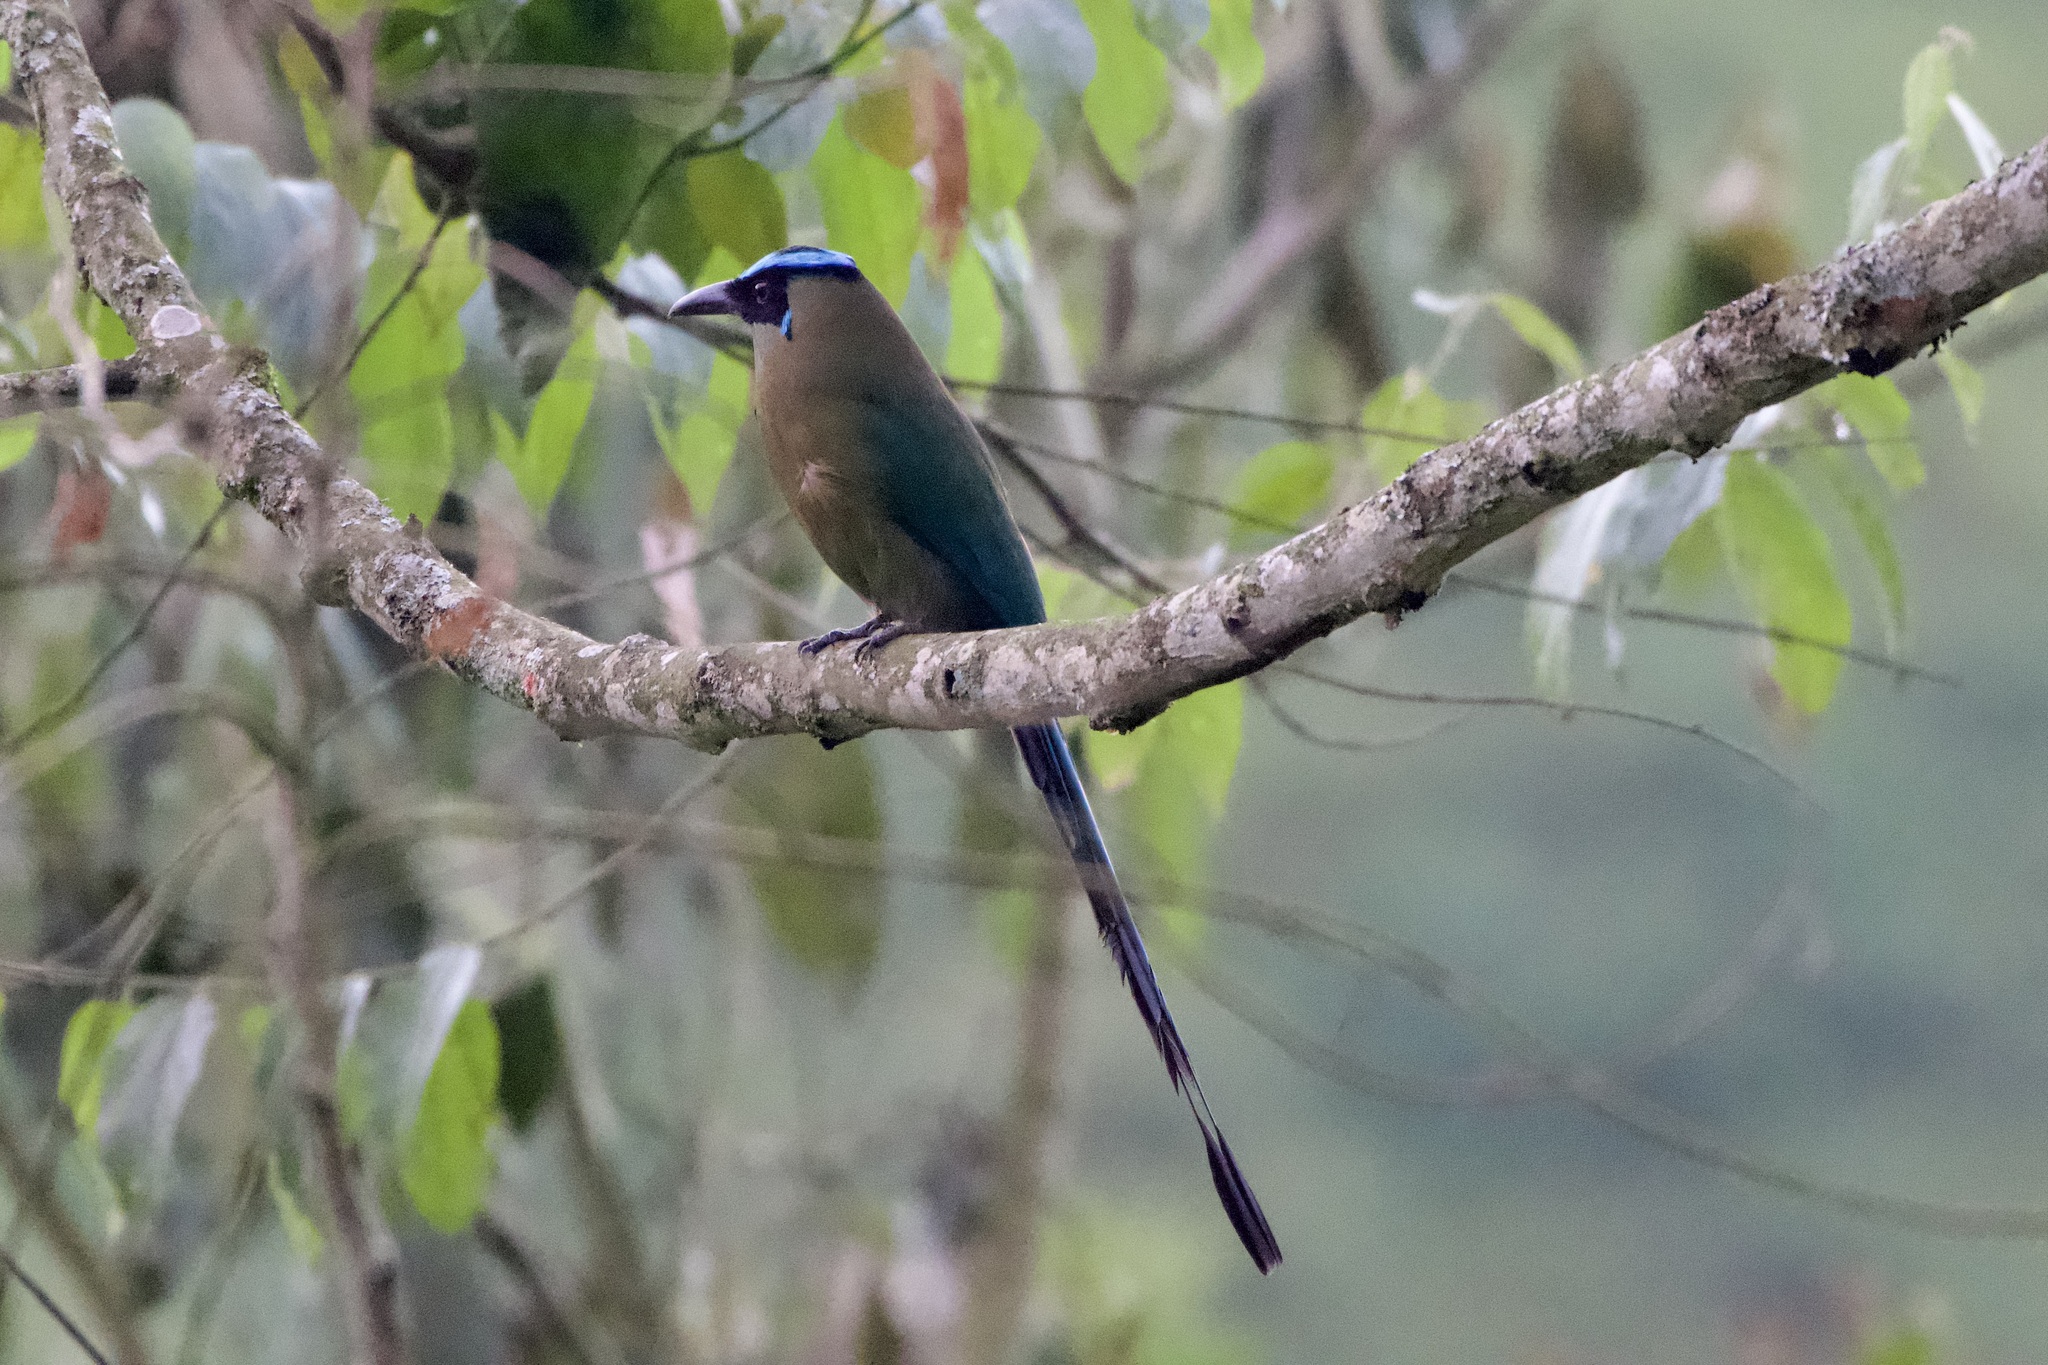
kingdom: Animalia
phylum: Chordata
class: Aves
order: Coraciiformes
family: Momotidae
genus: Momotus
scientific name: Momotus aequatorialis
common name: Andean motmot
